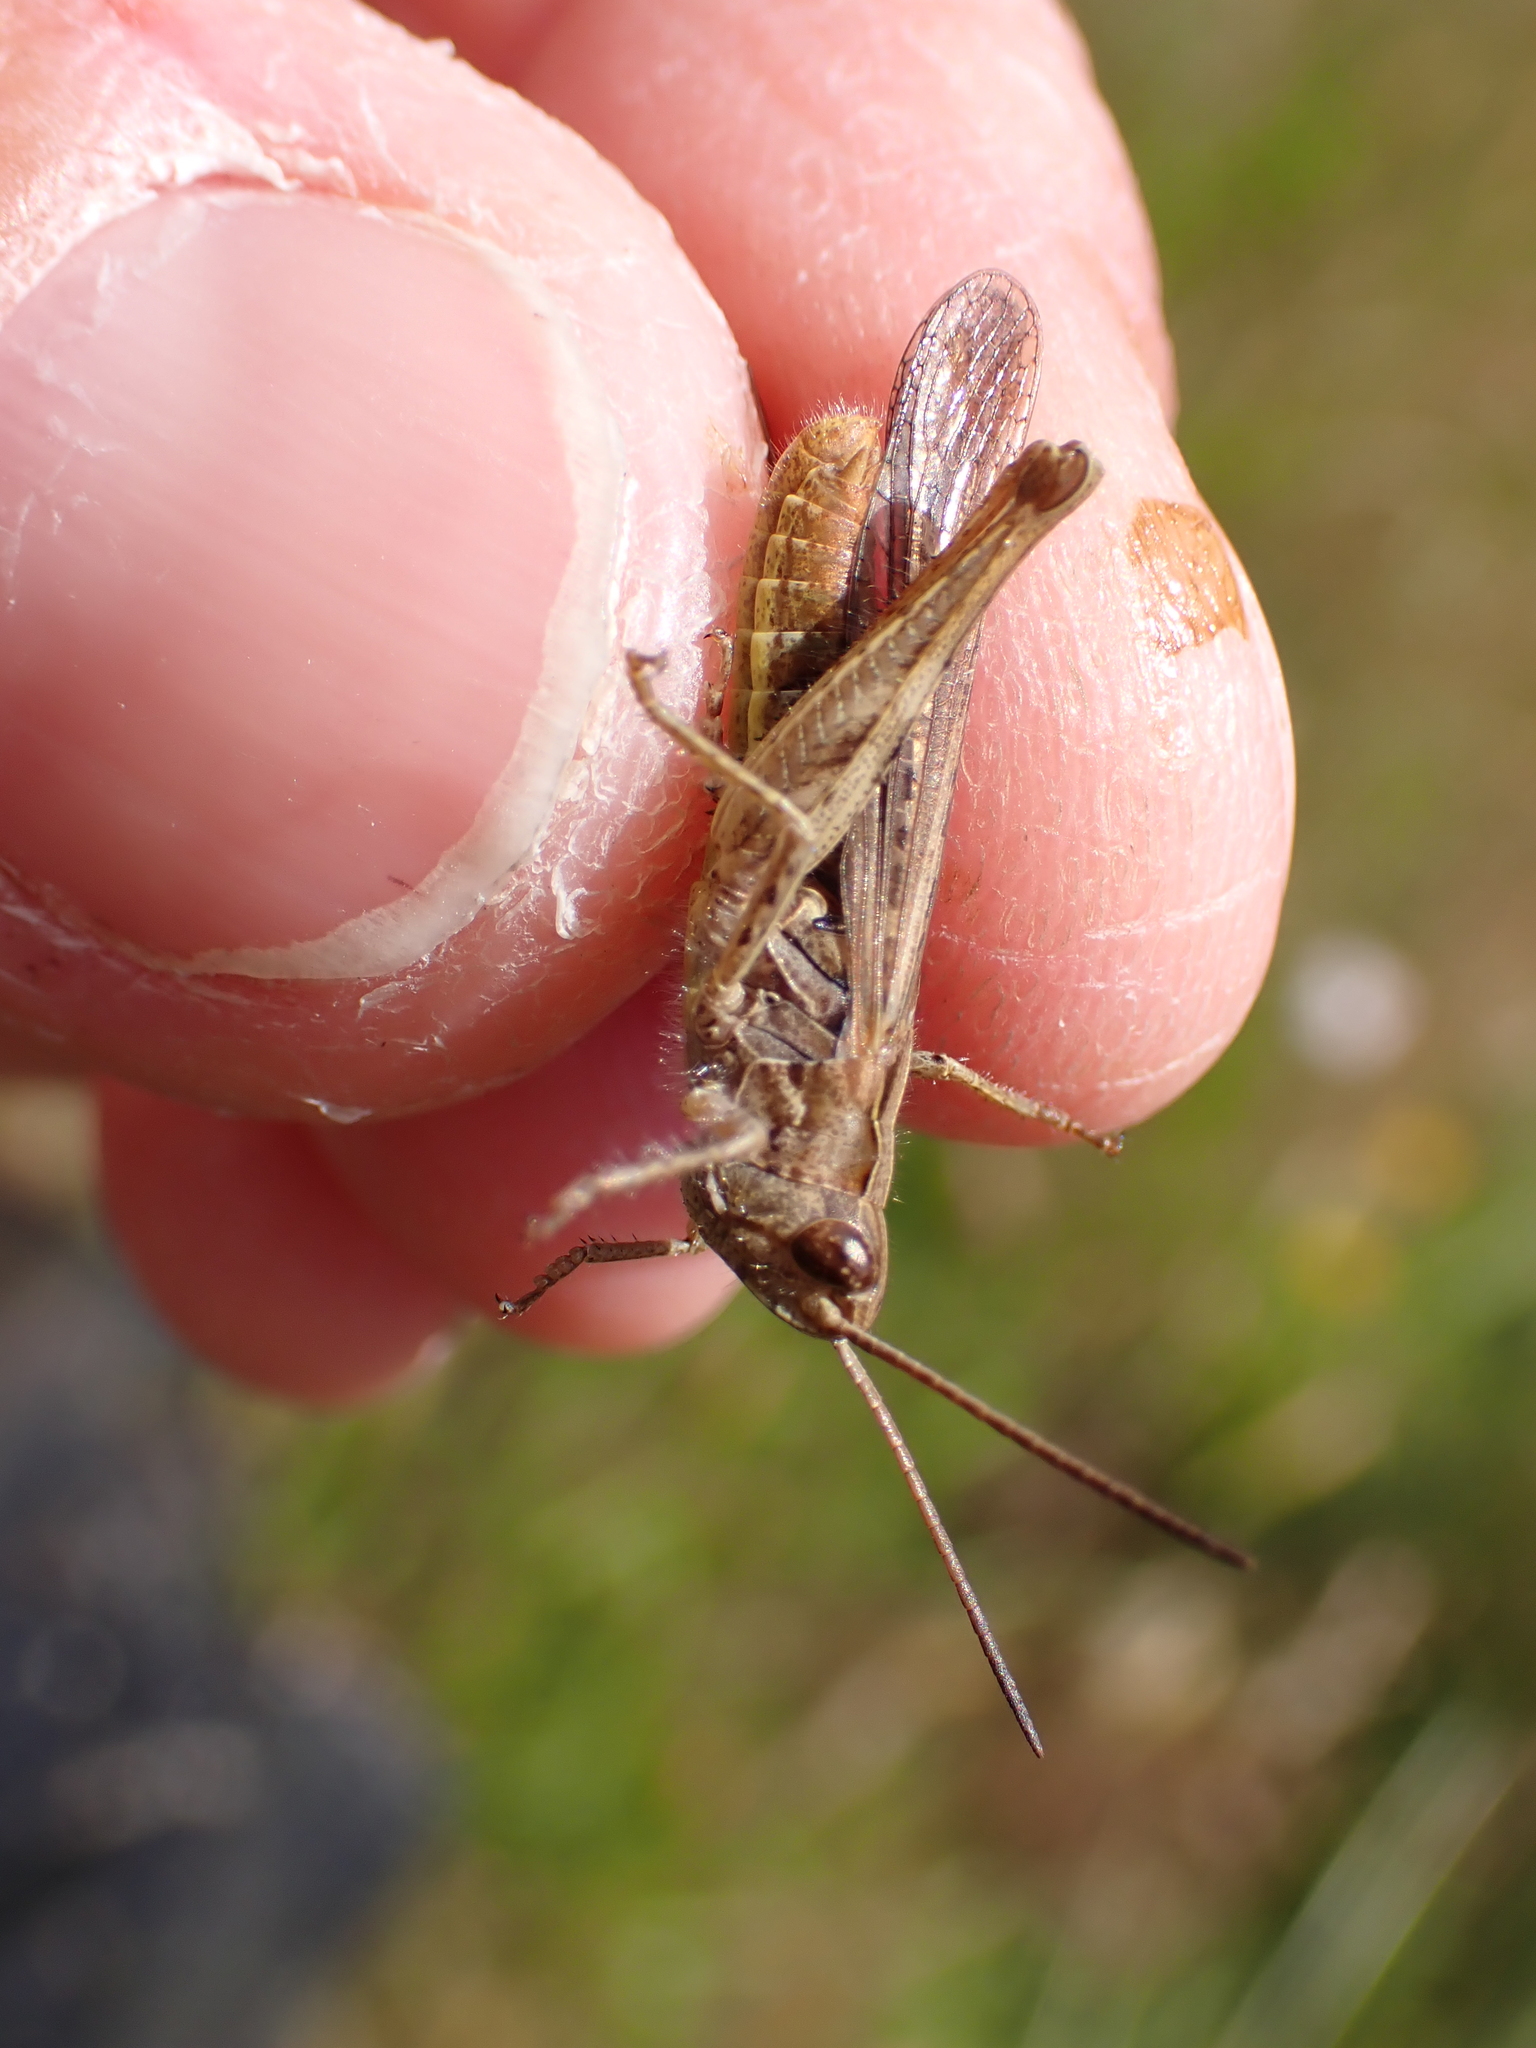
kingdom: Animalia
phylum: Arthropoda
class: Insecta
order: Orthoptera
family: Acrididae
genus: Chorthippus
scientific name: Chorthippus brunneus
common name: Field grasshopper
